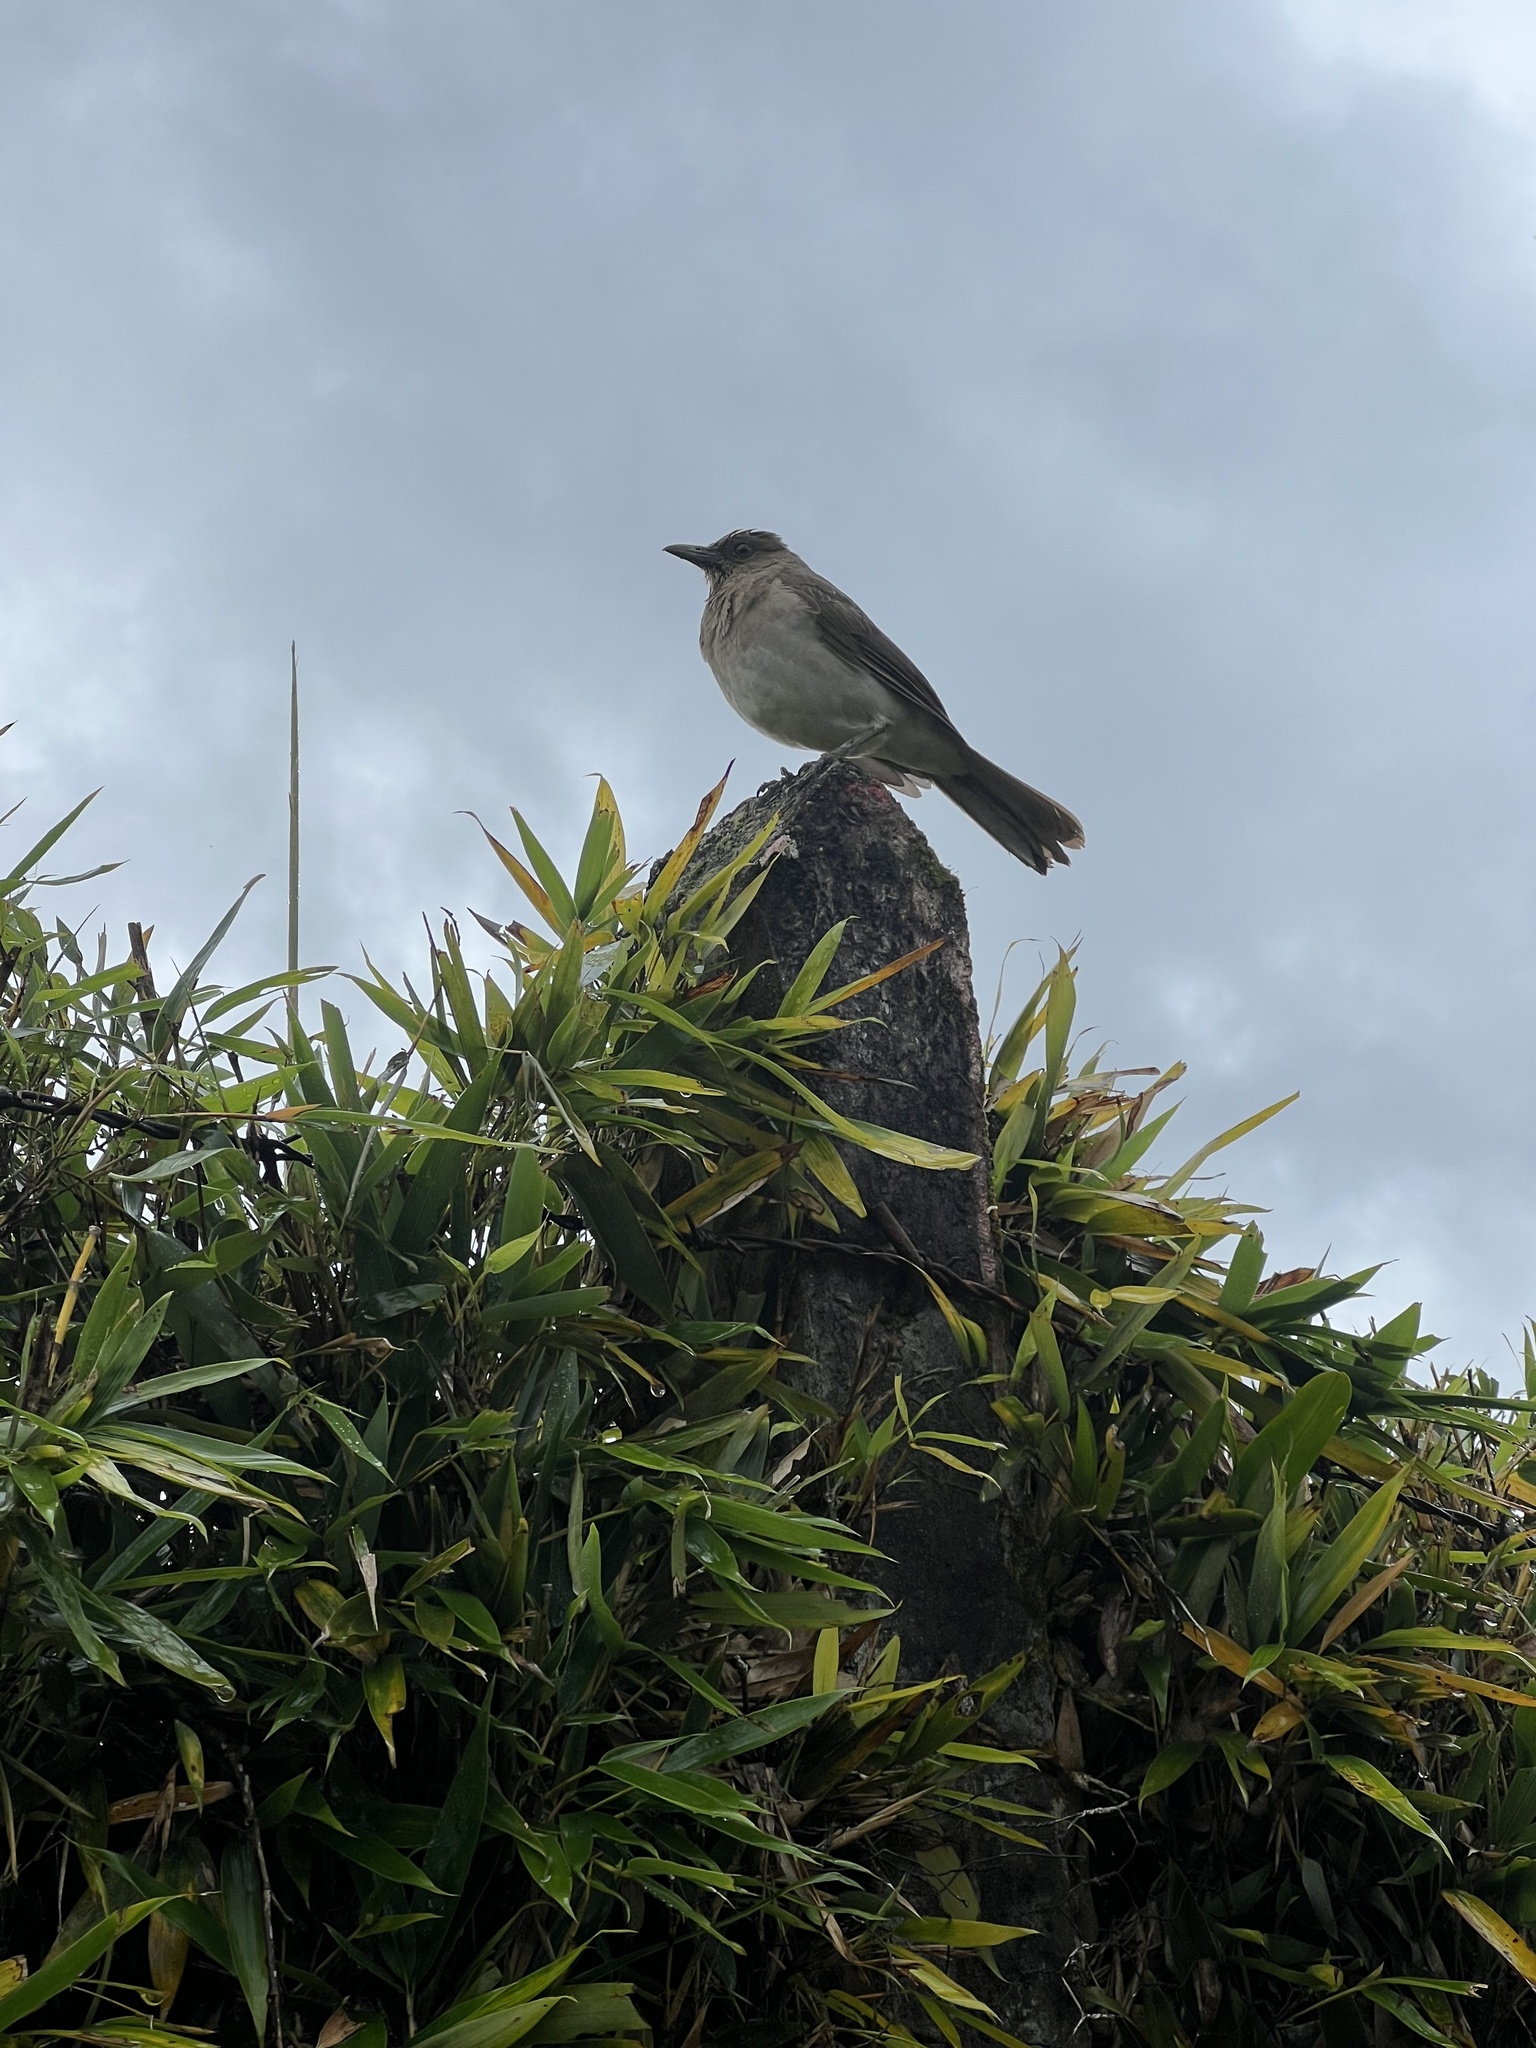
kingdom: Animalia
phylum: Chordata
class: Aves
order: Passeriformes
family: Turdidae
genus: Turdus
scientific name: Turdus ignobilis
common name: Black-billed thrush
